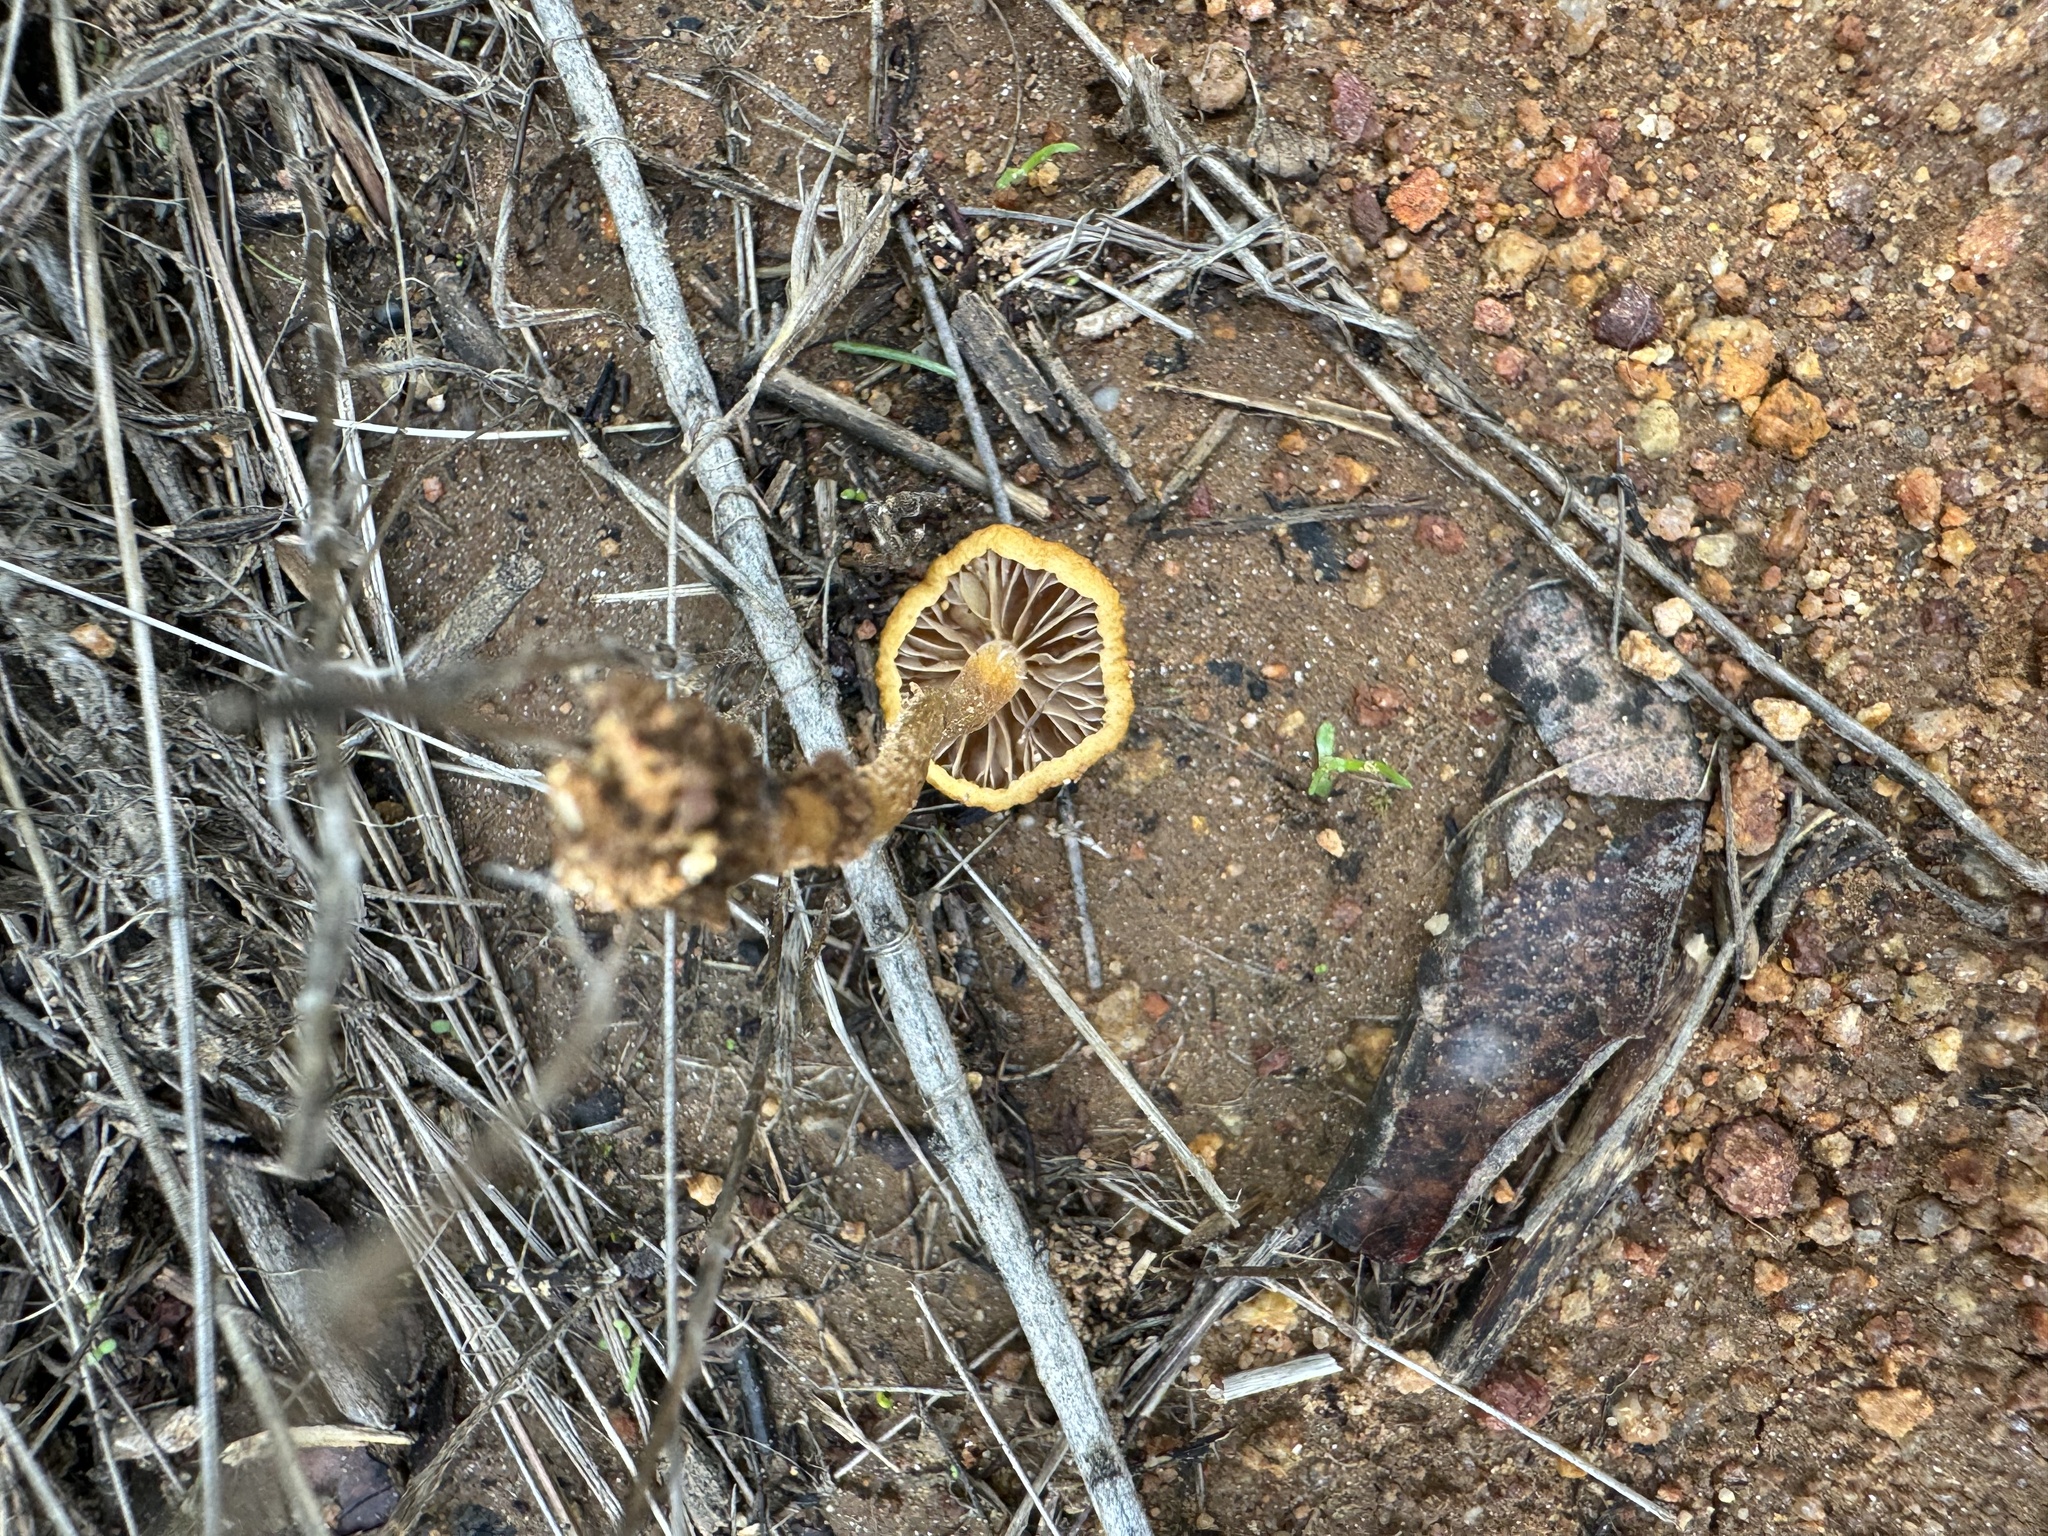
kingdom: Fungi
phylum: Basidiomycota
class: Agaricomycetes
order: Agaricales
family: Strophariaceae
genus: Agrocybe
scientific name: Agrocybe pediades
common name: Common fieldcap
